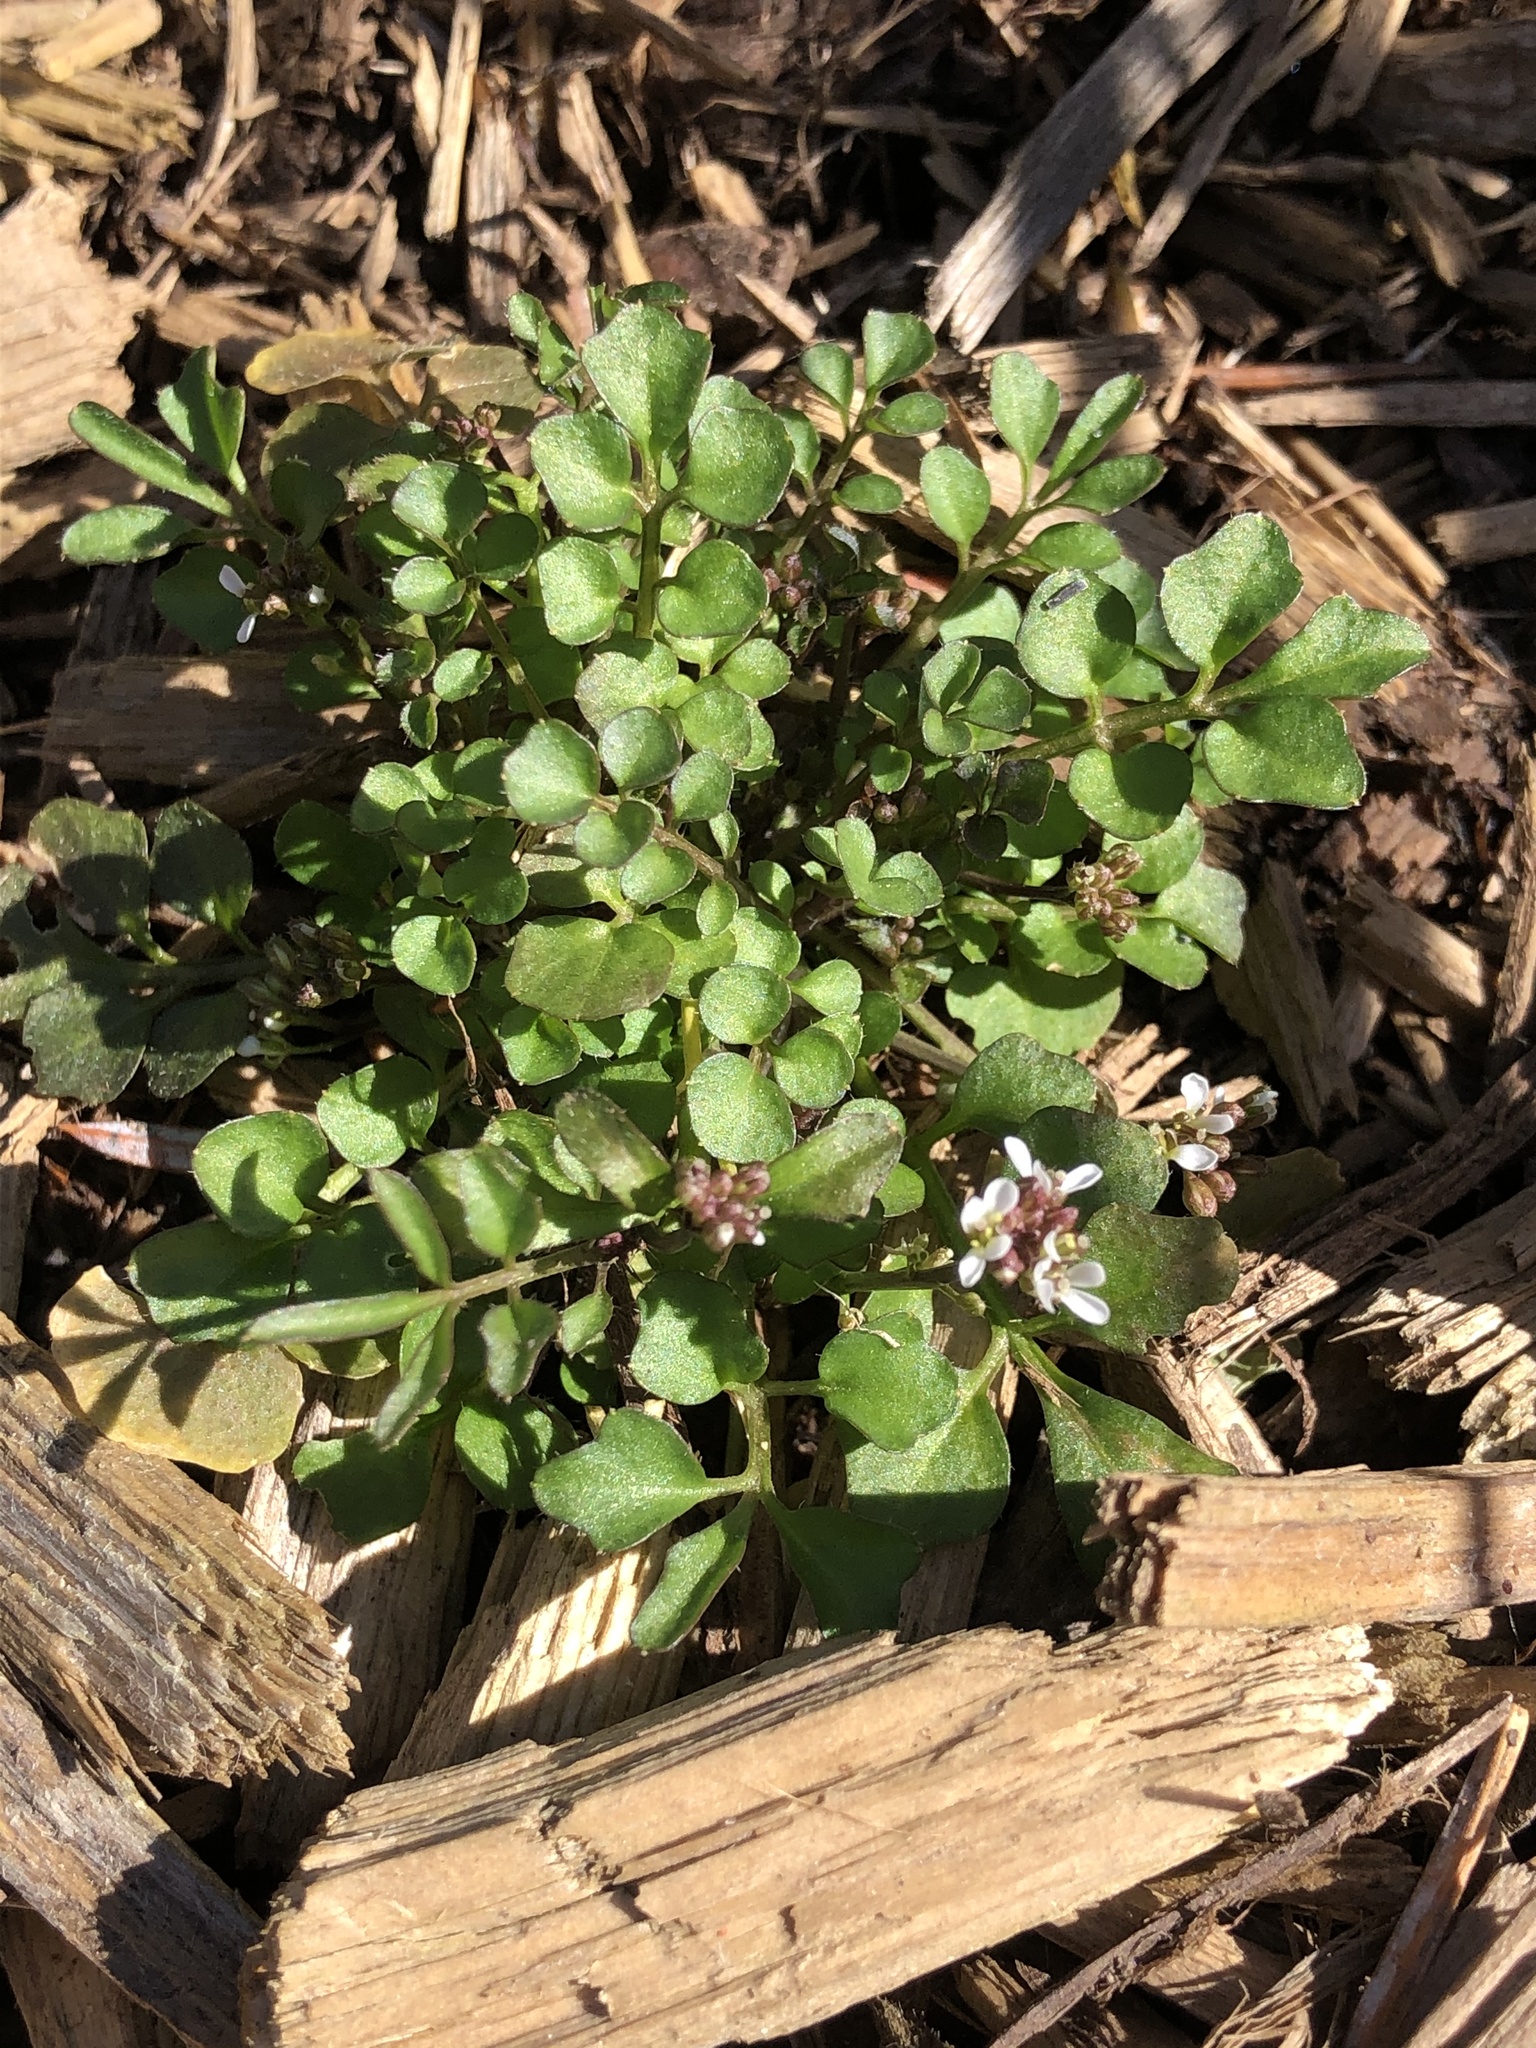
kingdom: Plantae
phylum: Tracheophyta
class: Magnoliopsida
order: Brassicales
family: Brassicaceae
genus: Cardamine
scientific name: Cardamine hirsuta
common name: Hairy bittercress
